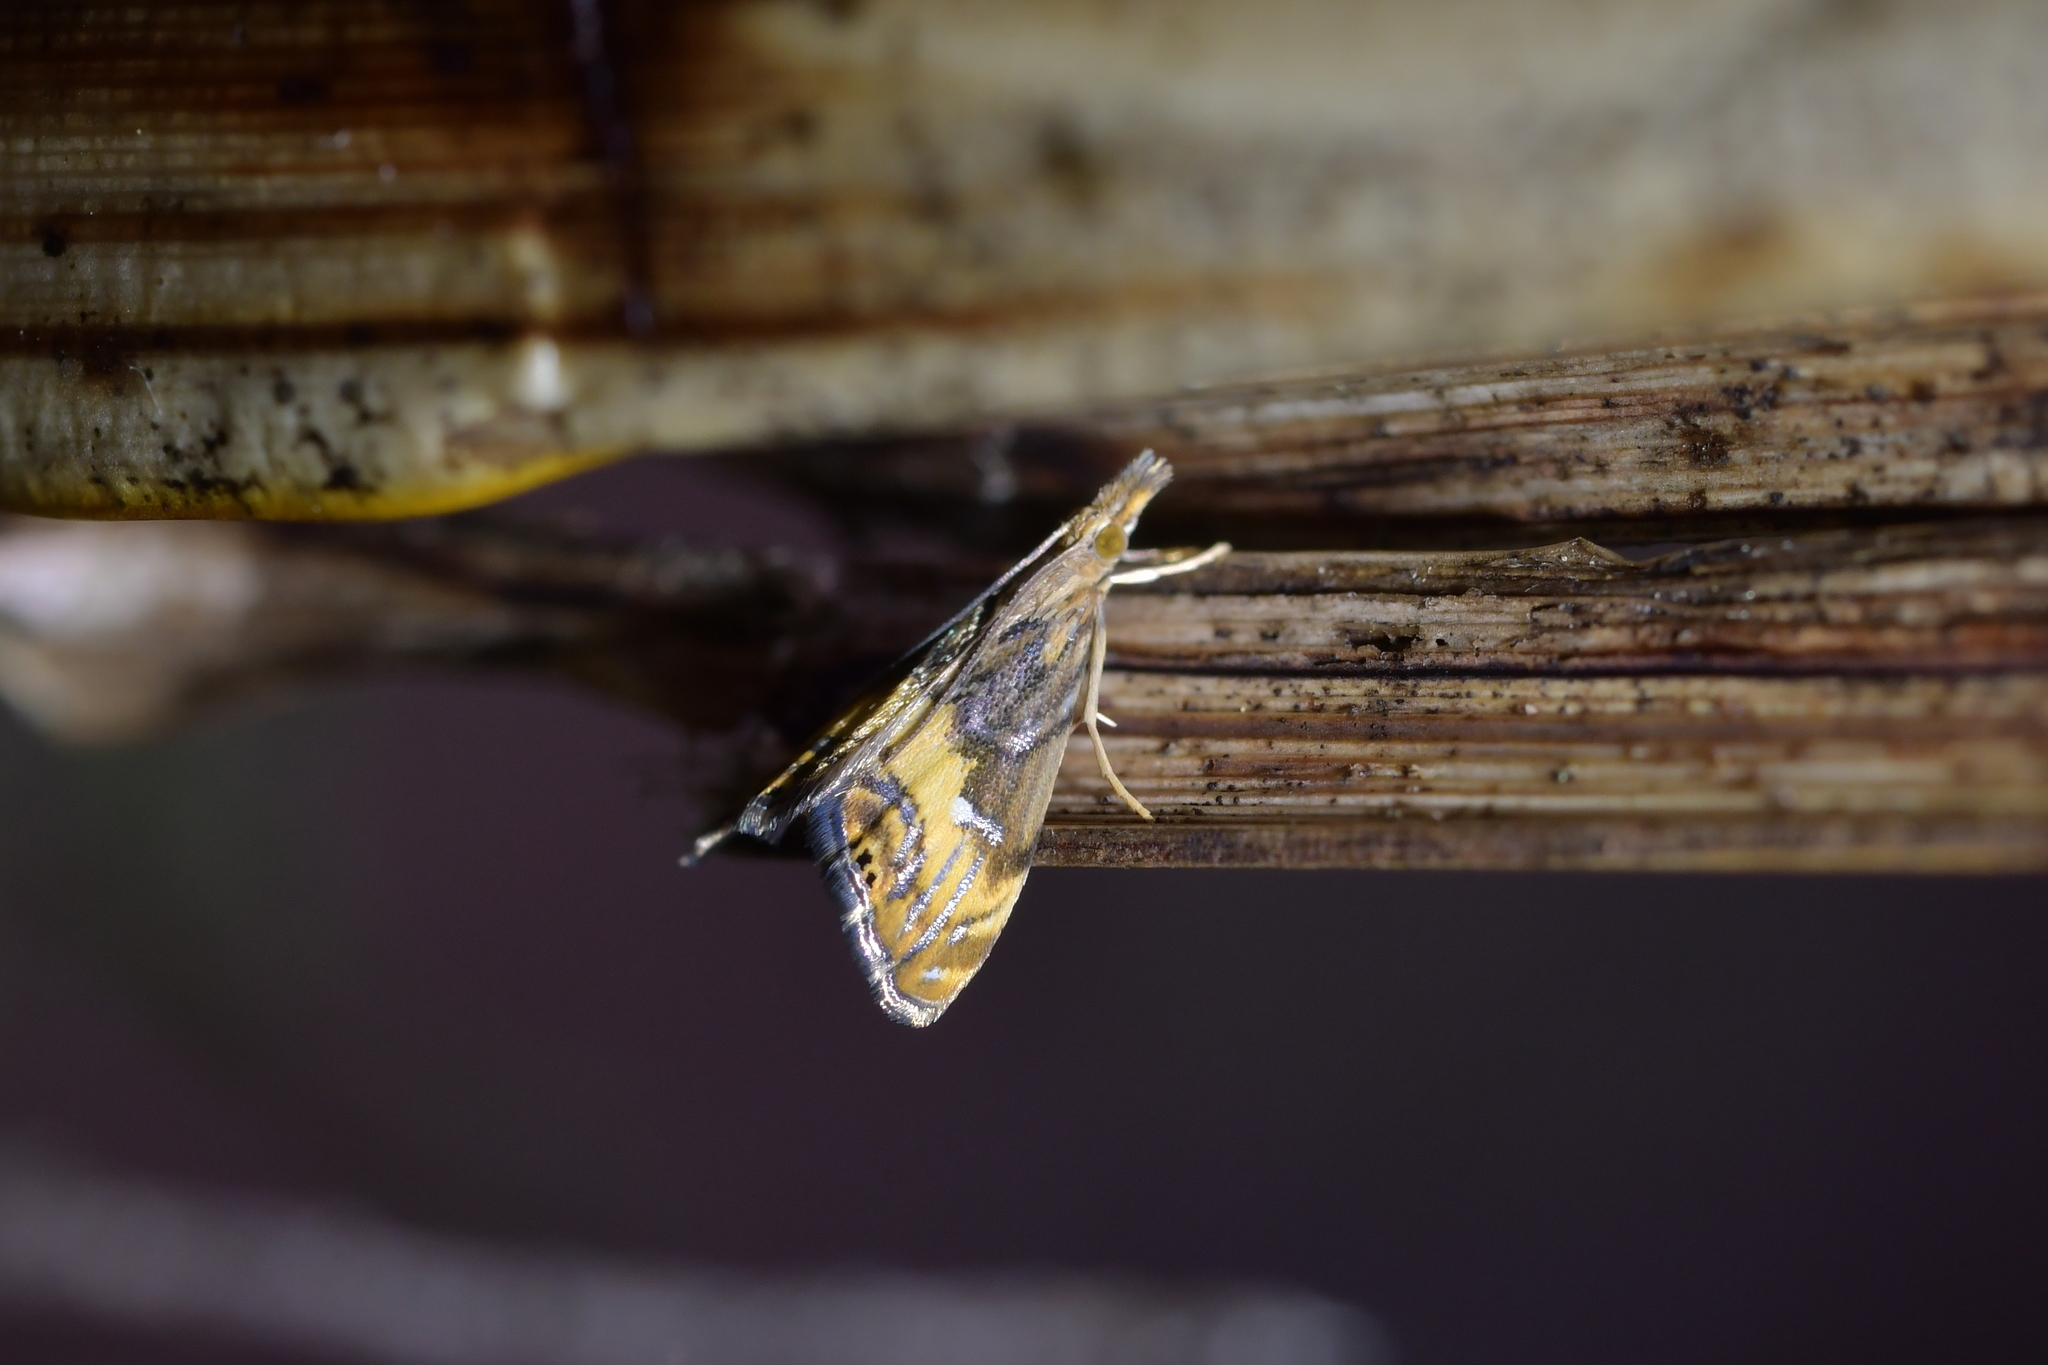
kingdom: Animalia
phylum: Arthropoda
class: Insecta
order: Lepidoptera
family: Crambidae
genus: Glaucocharis
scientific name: Glaucocharis chrysochyta
